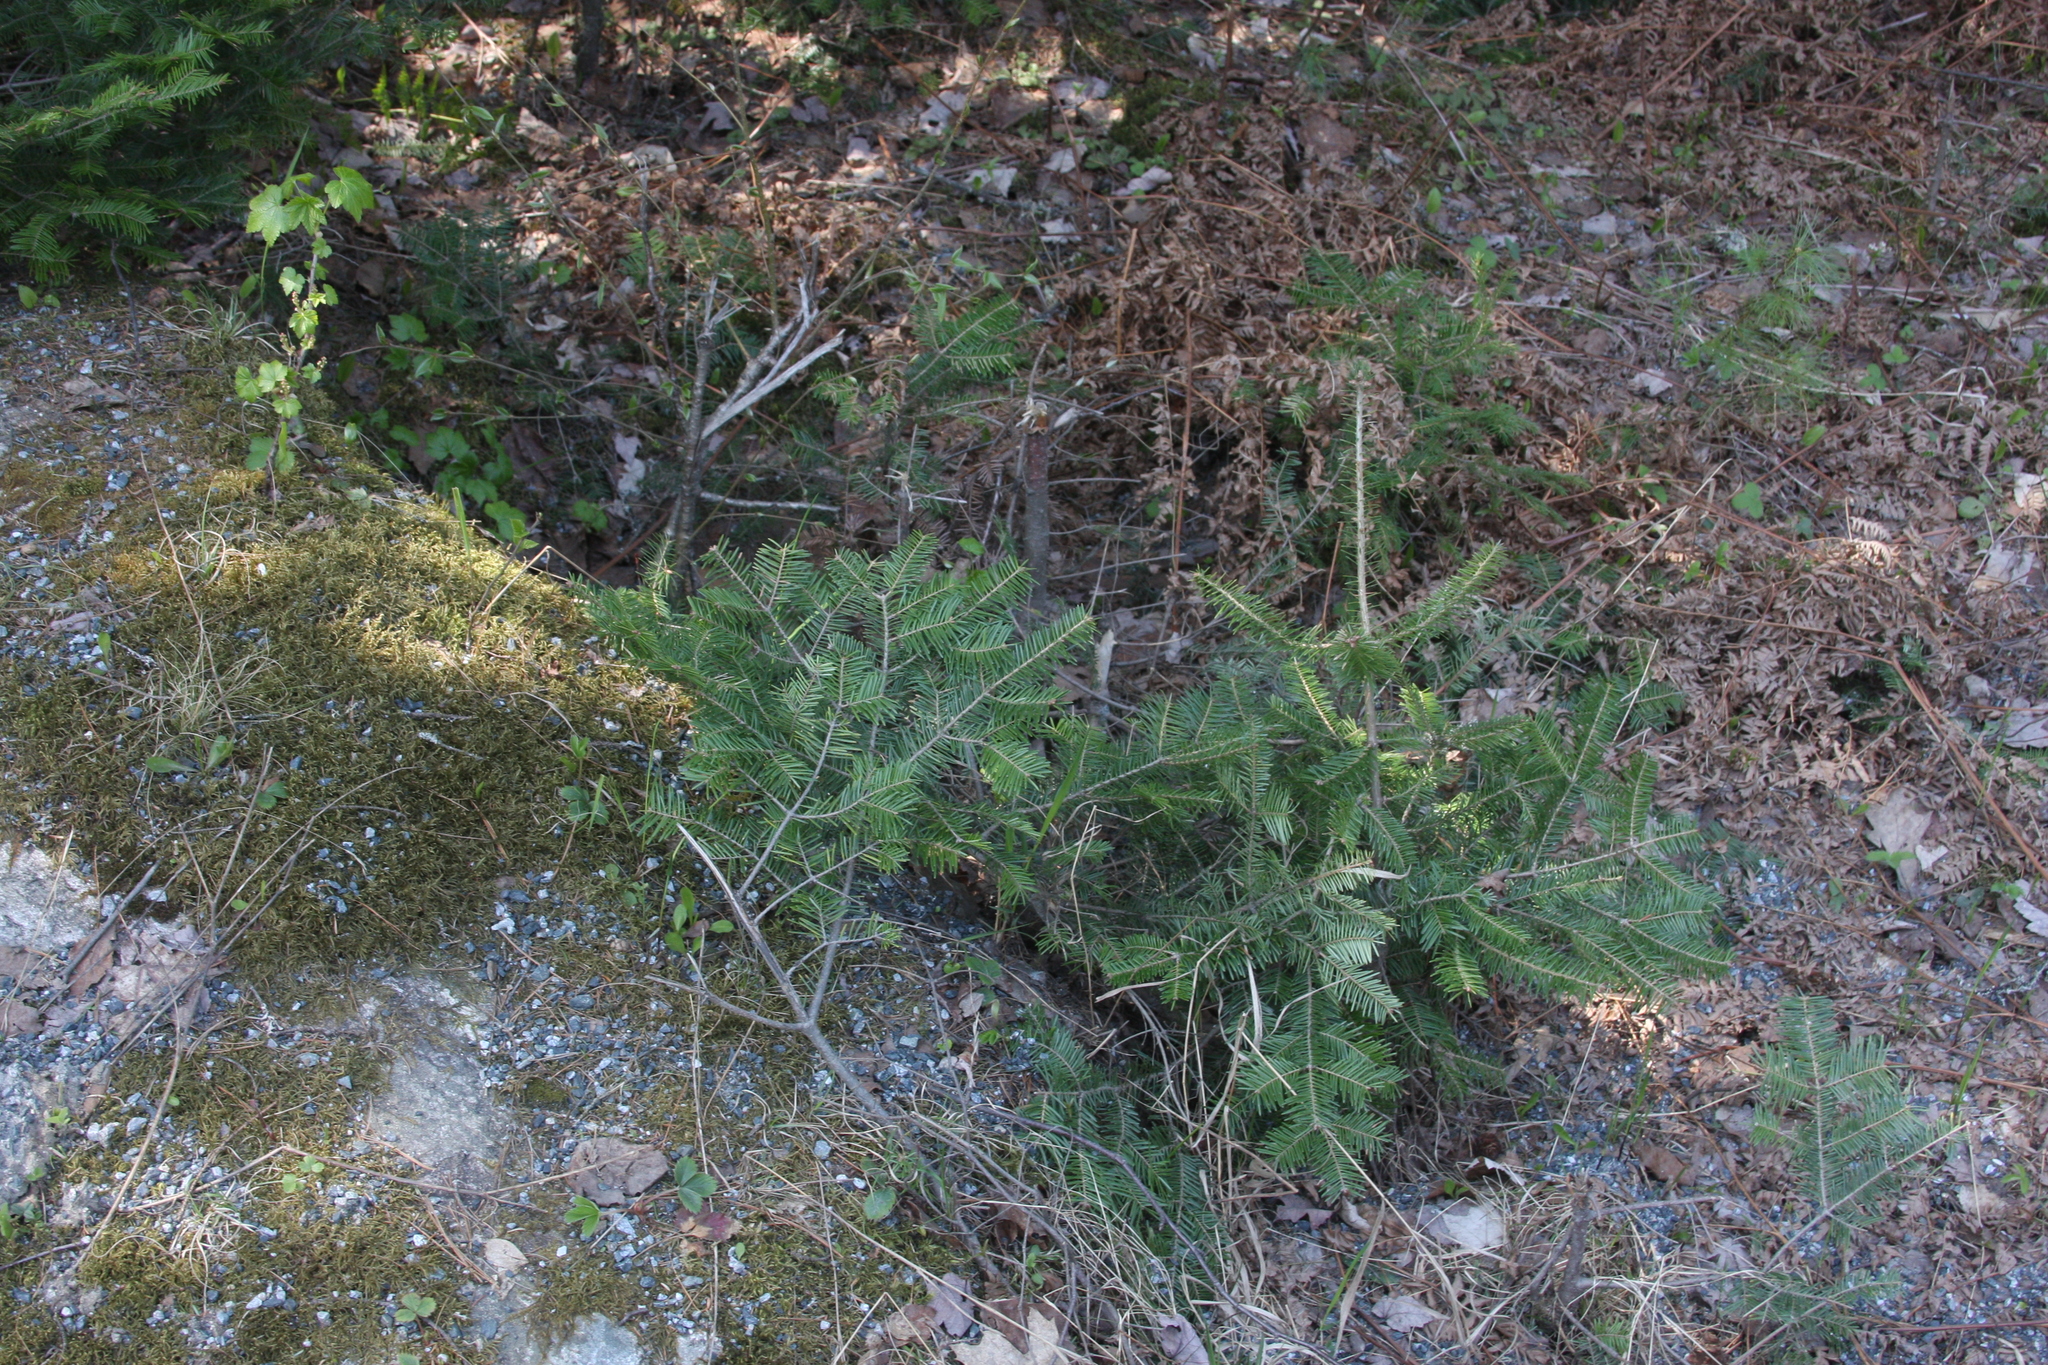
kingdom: Plantae
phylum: Tracheophyta
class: Pinopsida
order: Pinales
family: Pinaceae
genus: Abies
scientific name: Abies balsamea
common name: Balsam fir
